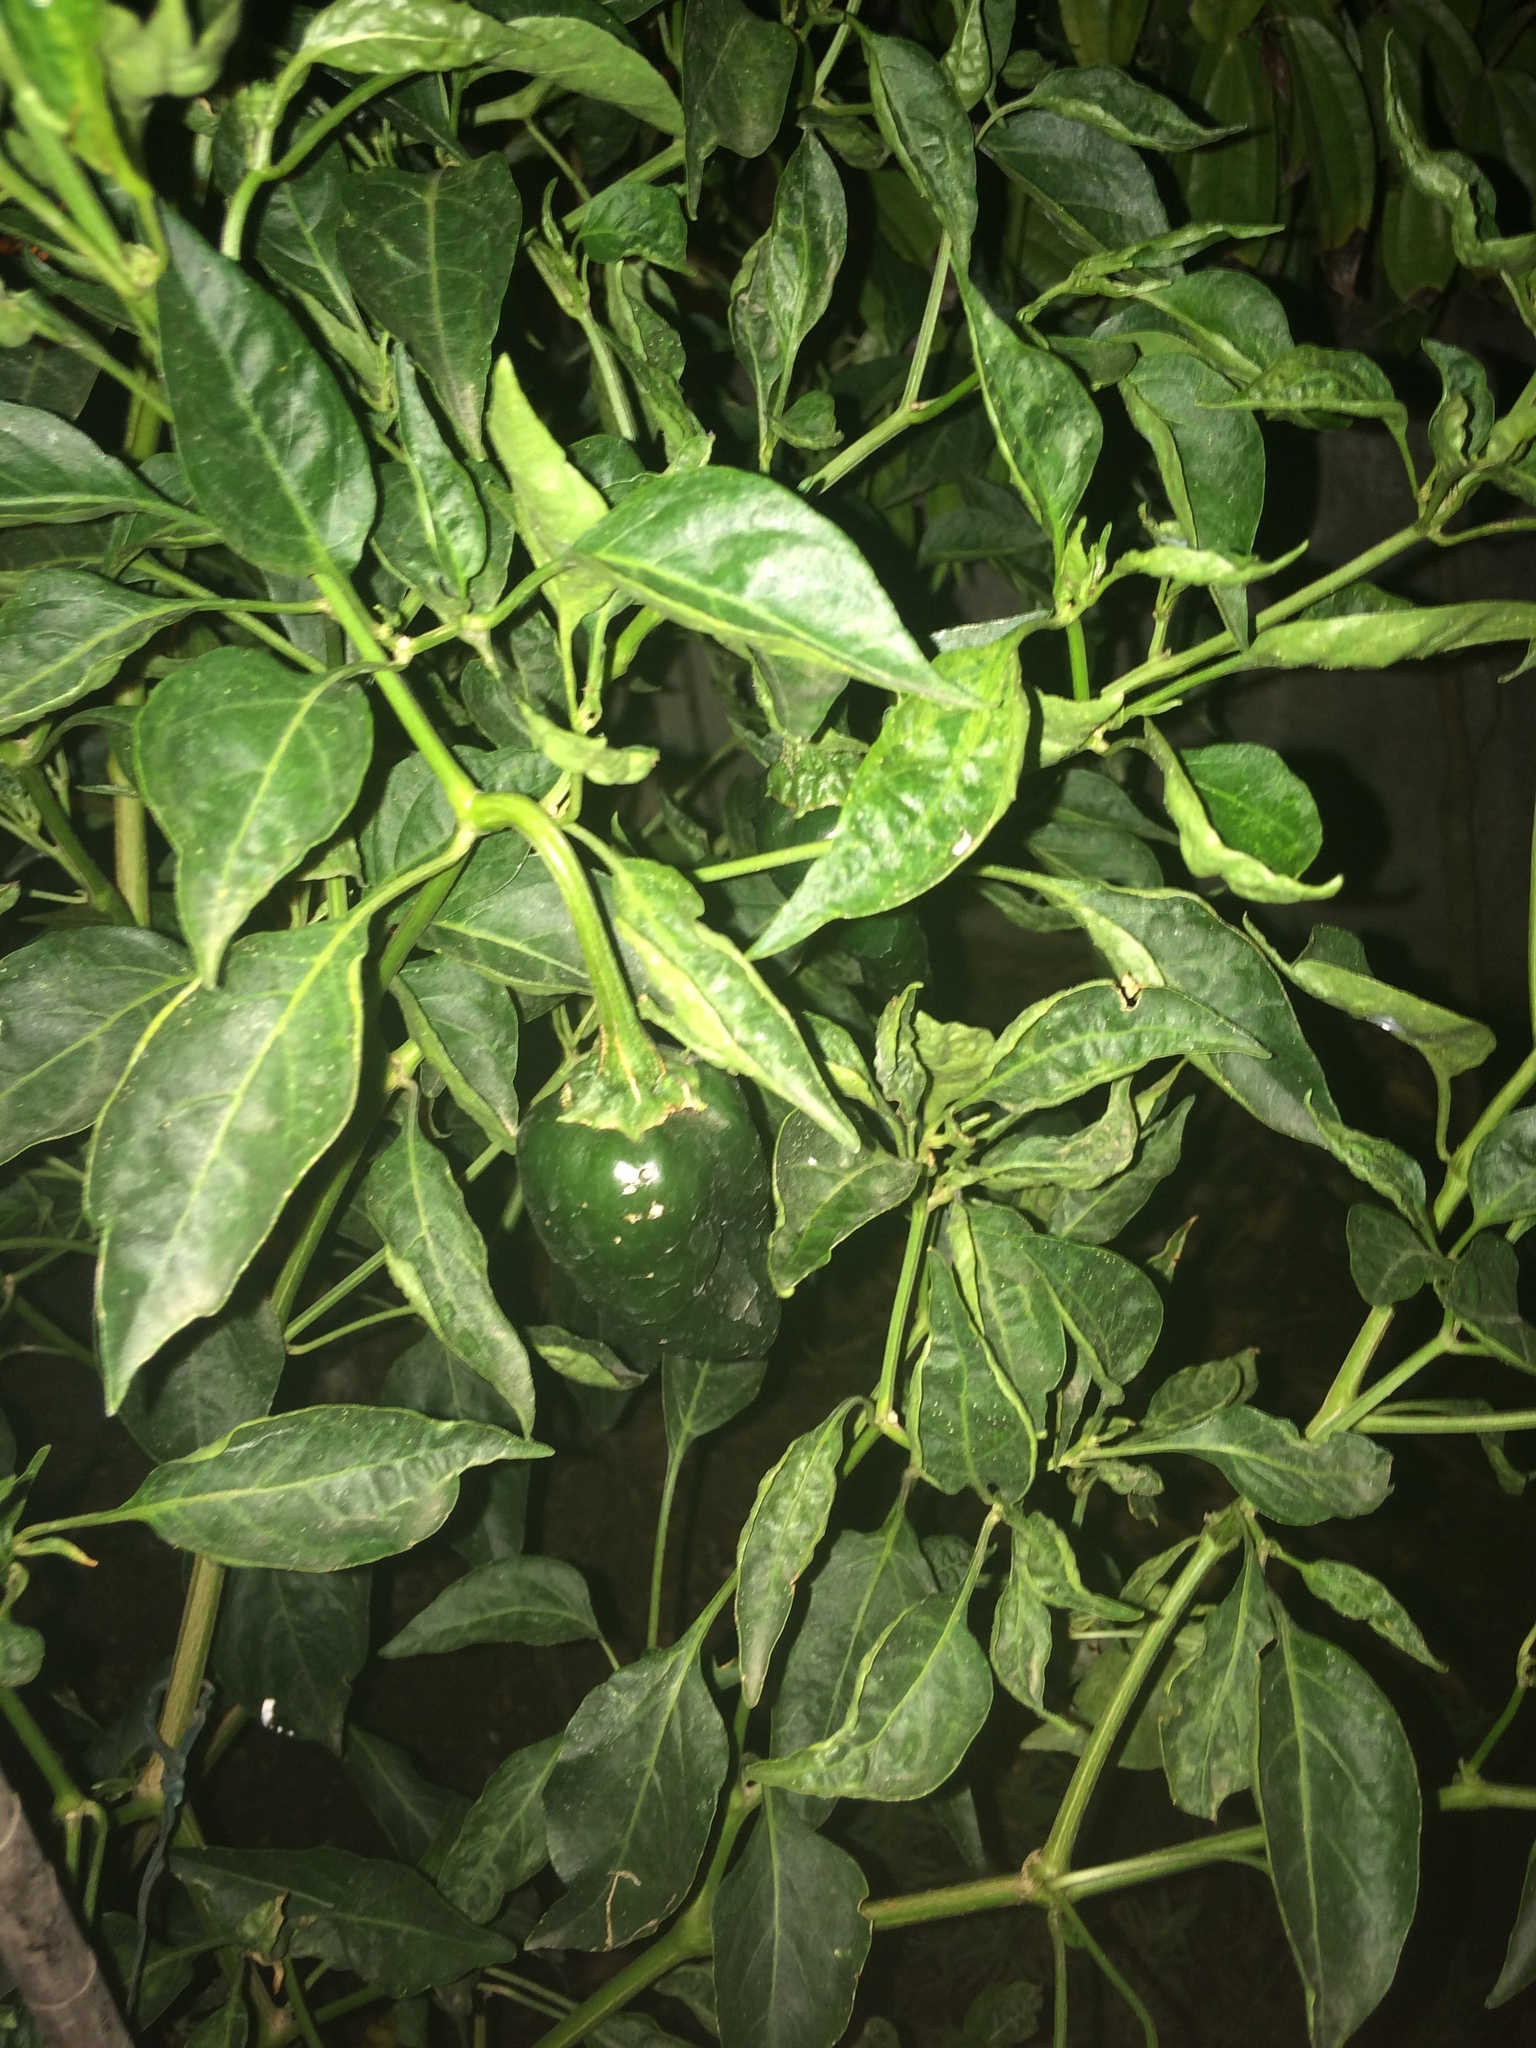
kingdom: Plantae
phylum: Tracheophyta
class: Magnoliopsida
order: Solanales
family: Solanaceae
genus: Capsicum
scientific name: Capsicum annuum
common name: Sweet pepper
